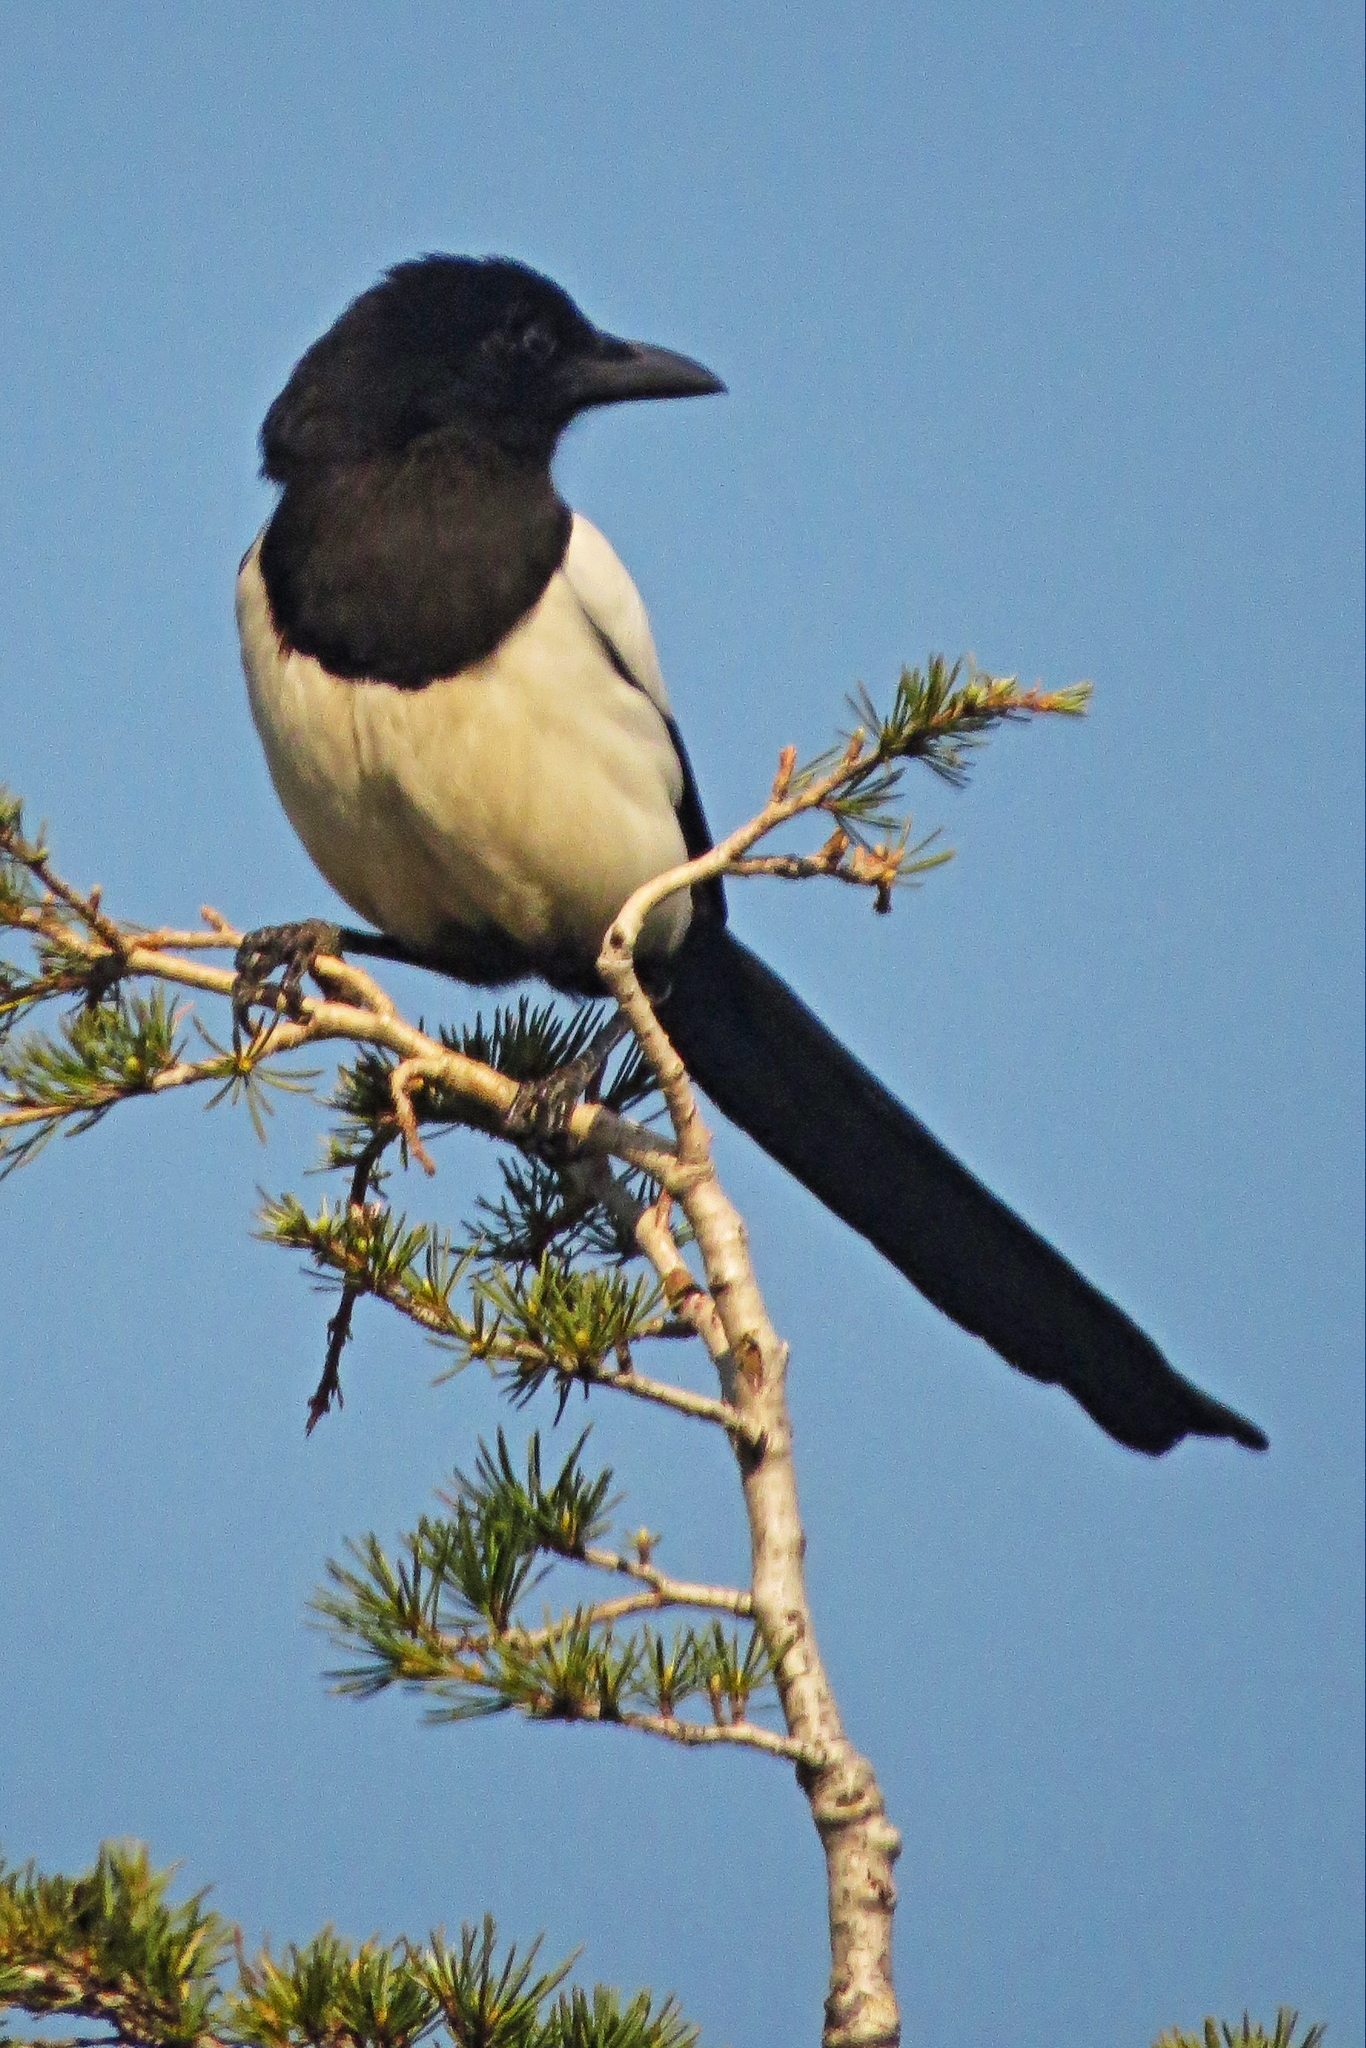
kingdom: Animalia
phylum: Chordata
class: Aves
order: Passeriformes
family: Corvidae
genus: Pica
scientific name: Pica pica
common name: Eurasian magpie
